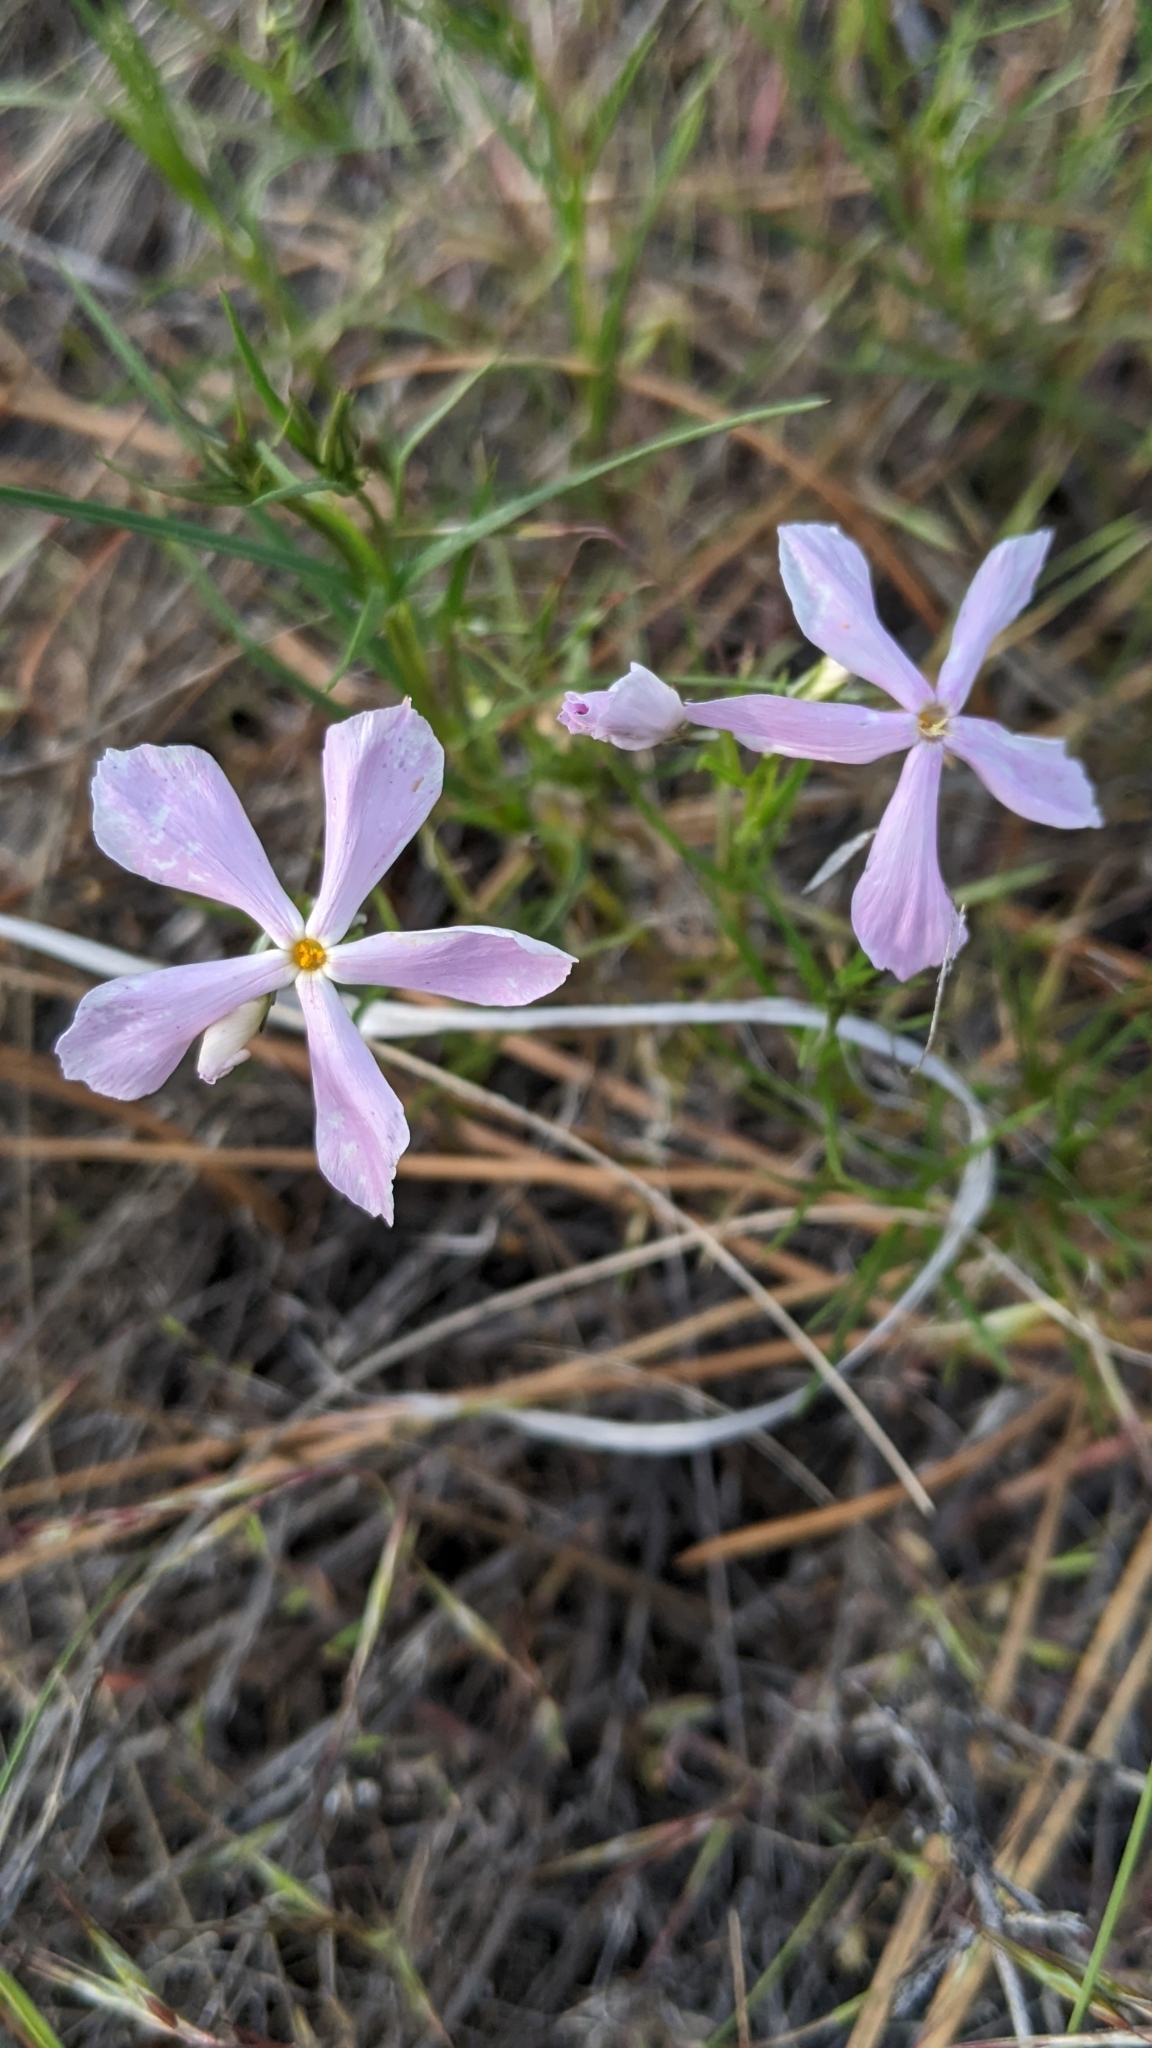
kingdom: Plantae
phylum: Tracheophyta
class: Magnoliopsida
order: Ericales
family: Polemoniaceae
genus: Phlox
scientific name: Phlox longifolia
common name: Longleaf phlox
